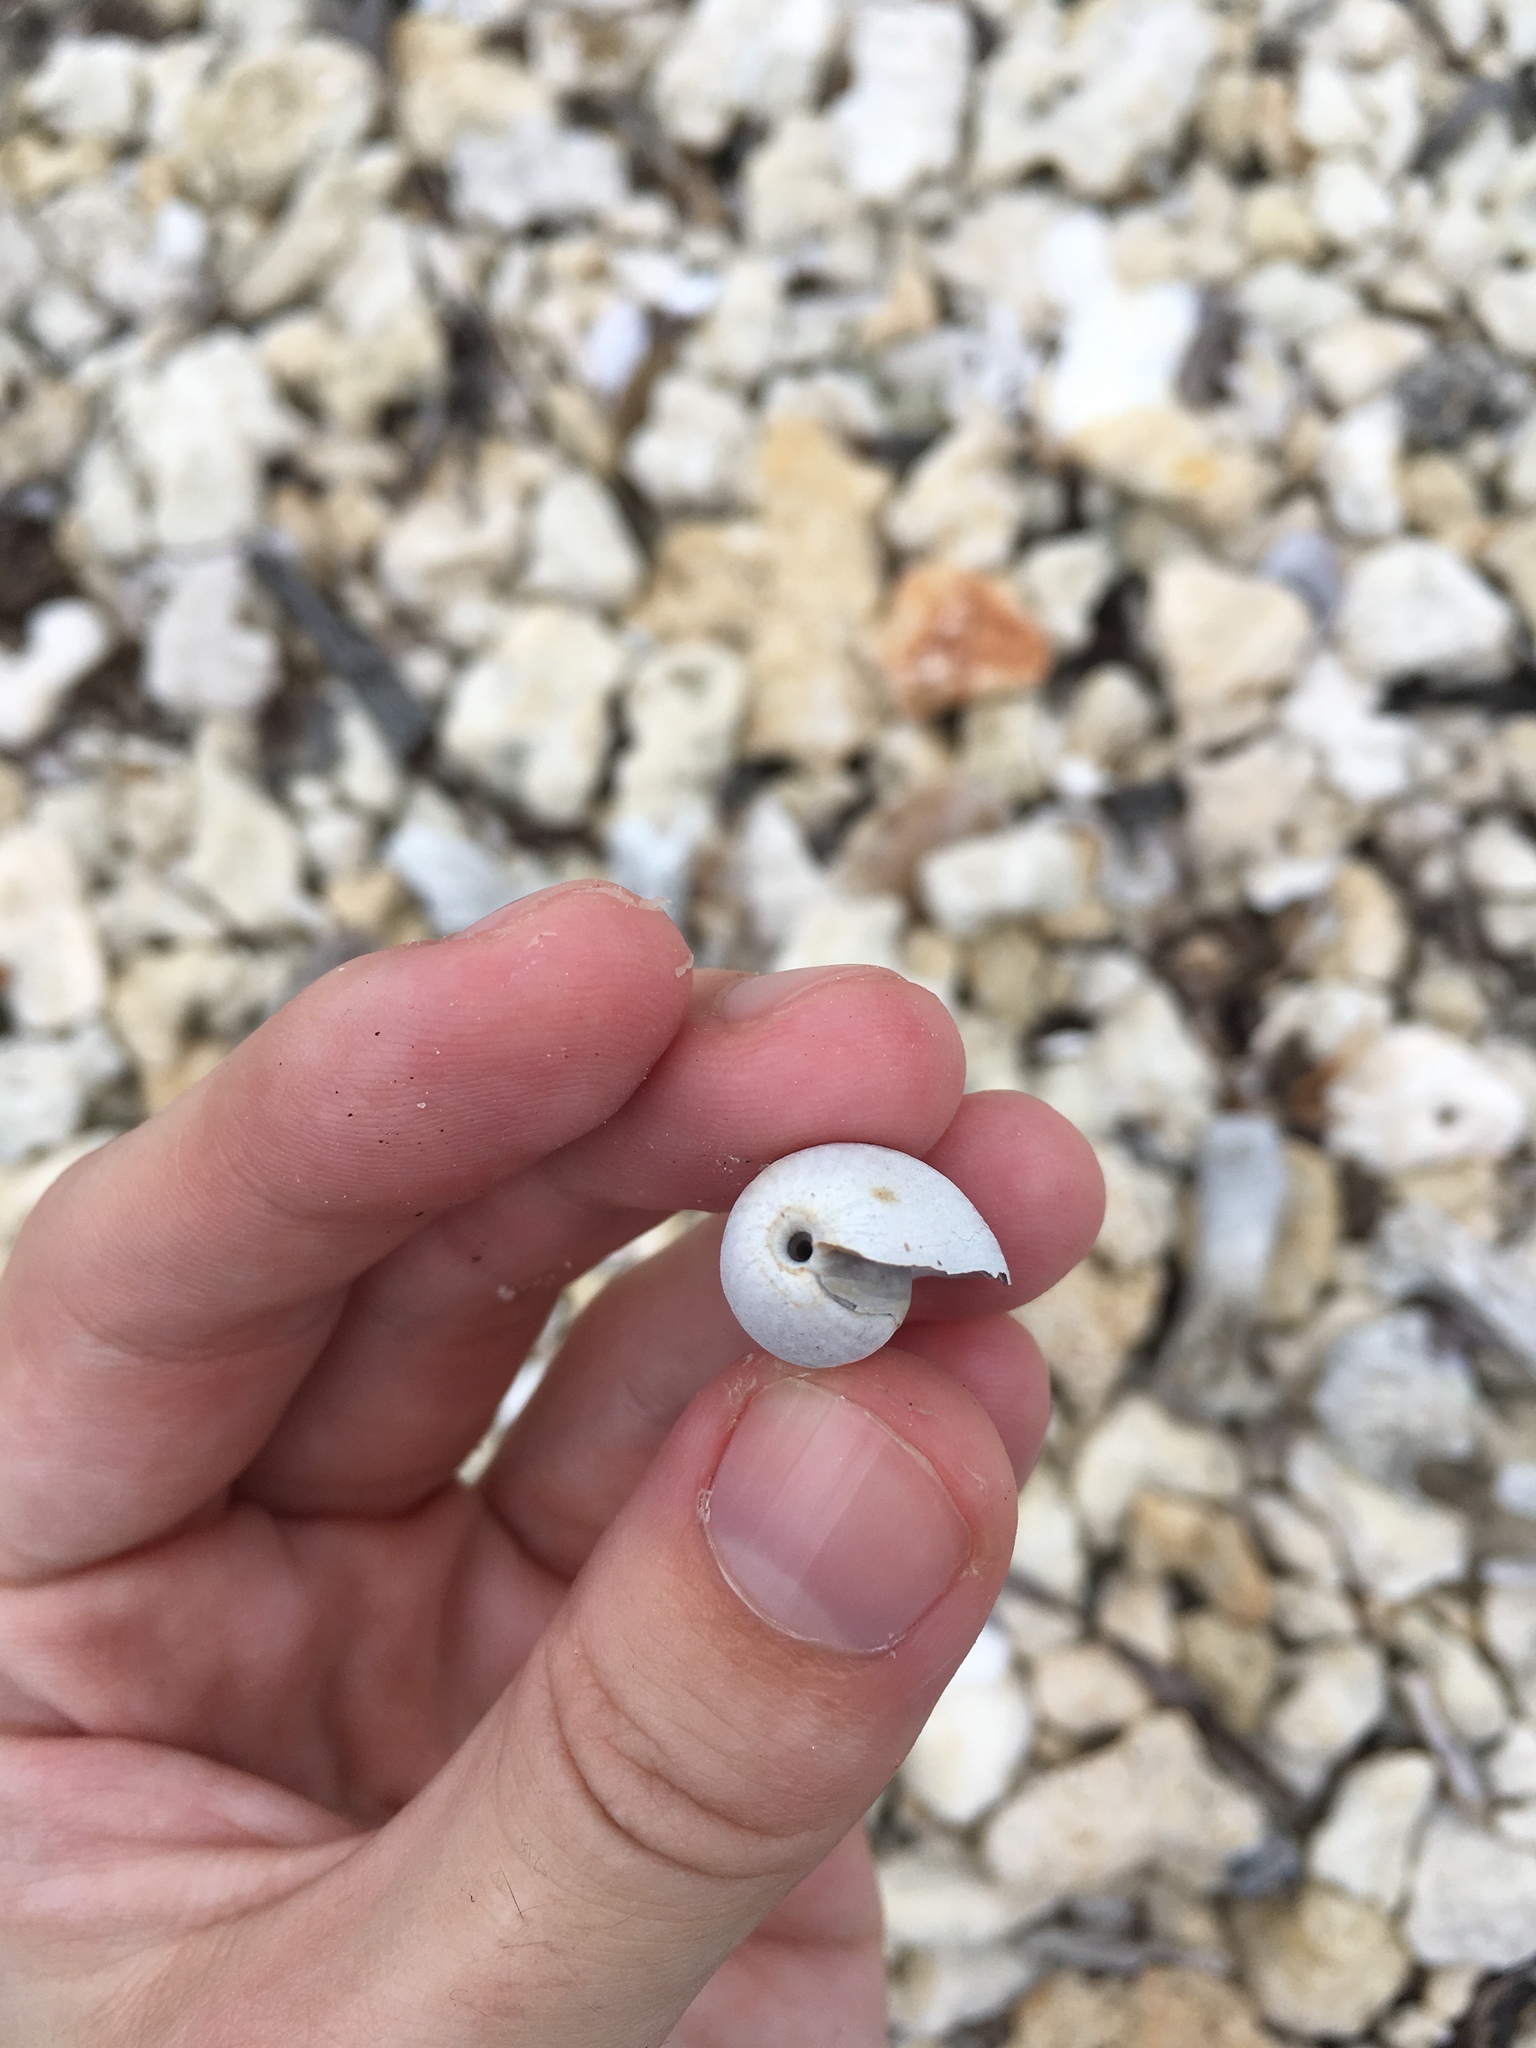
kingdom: Animalia
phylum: Mollusca
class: Gastropoda
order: Cephalaspidea
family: Bullidae
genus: Bulla
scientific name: Bulla occidentalis
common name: Common west-indian bubble
